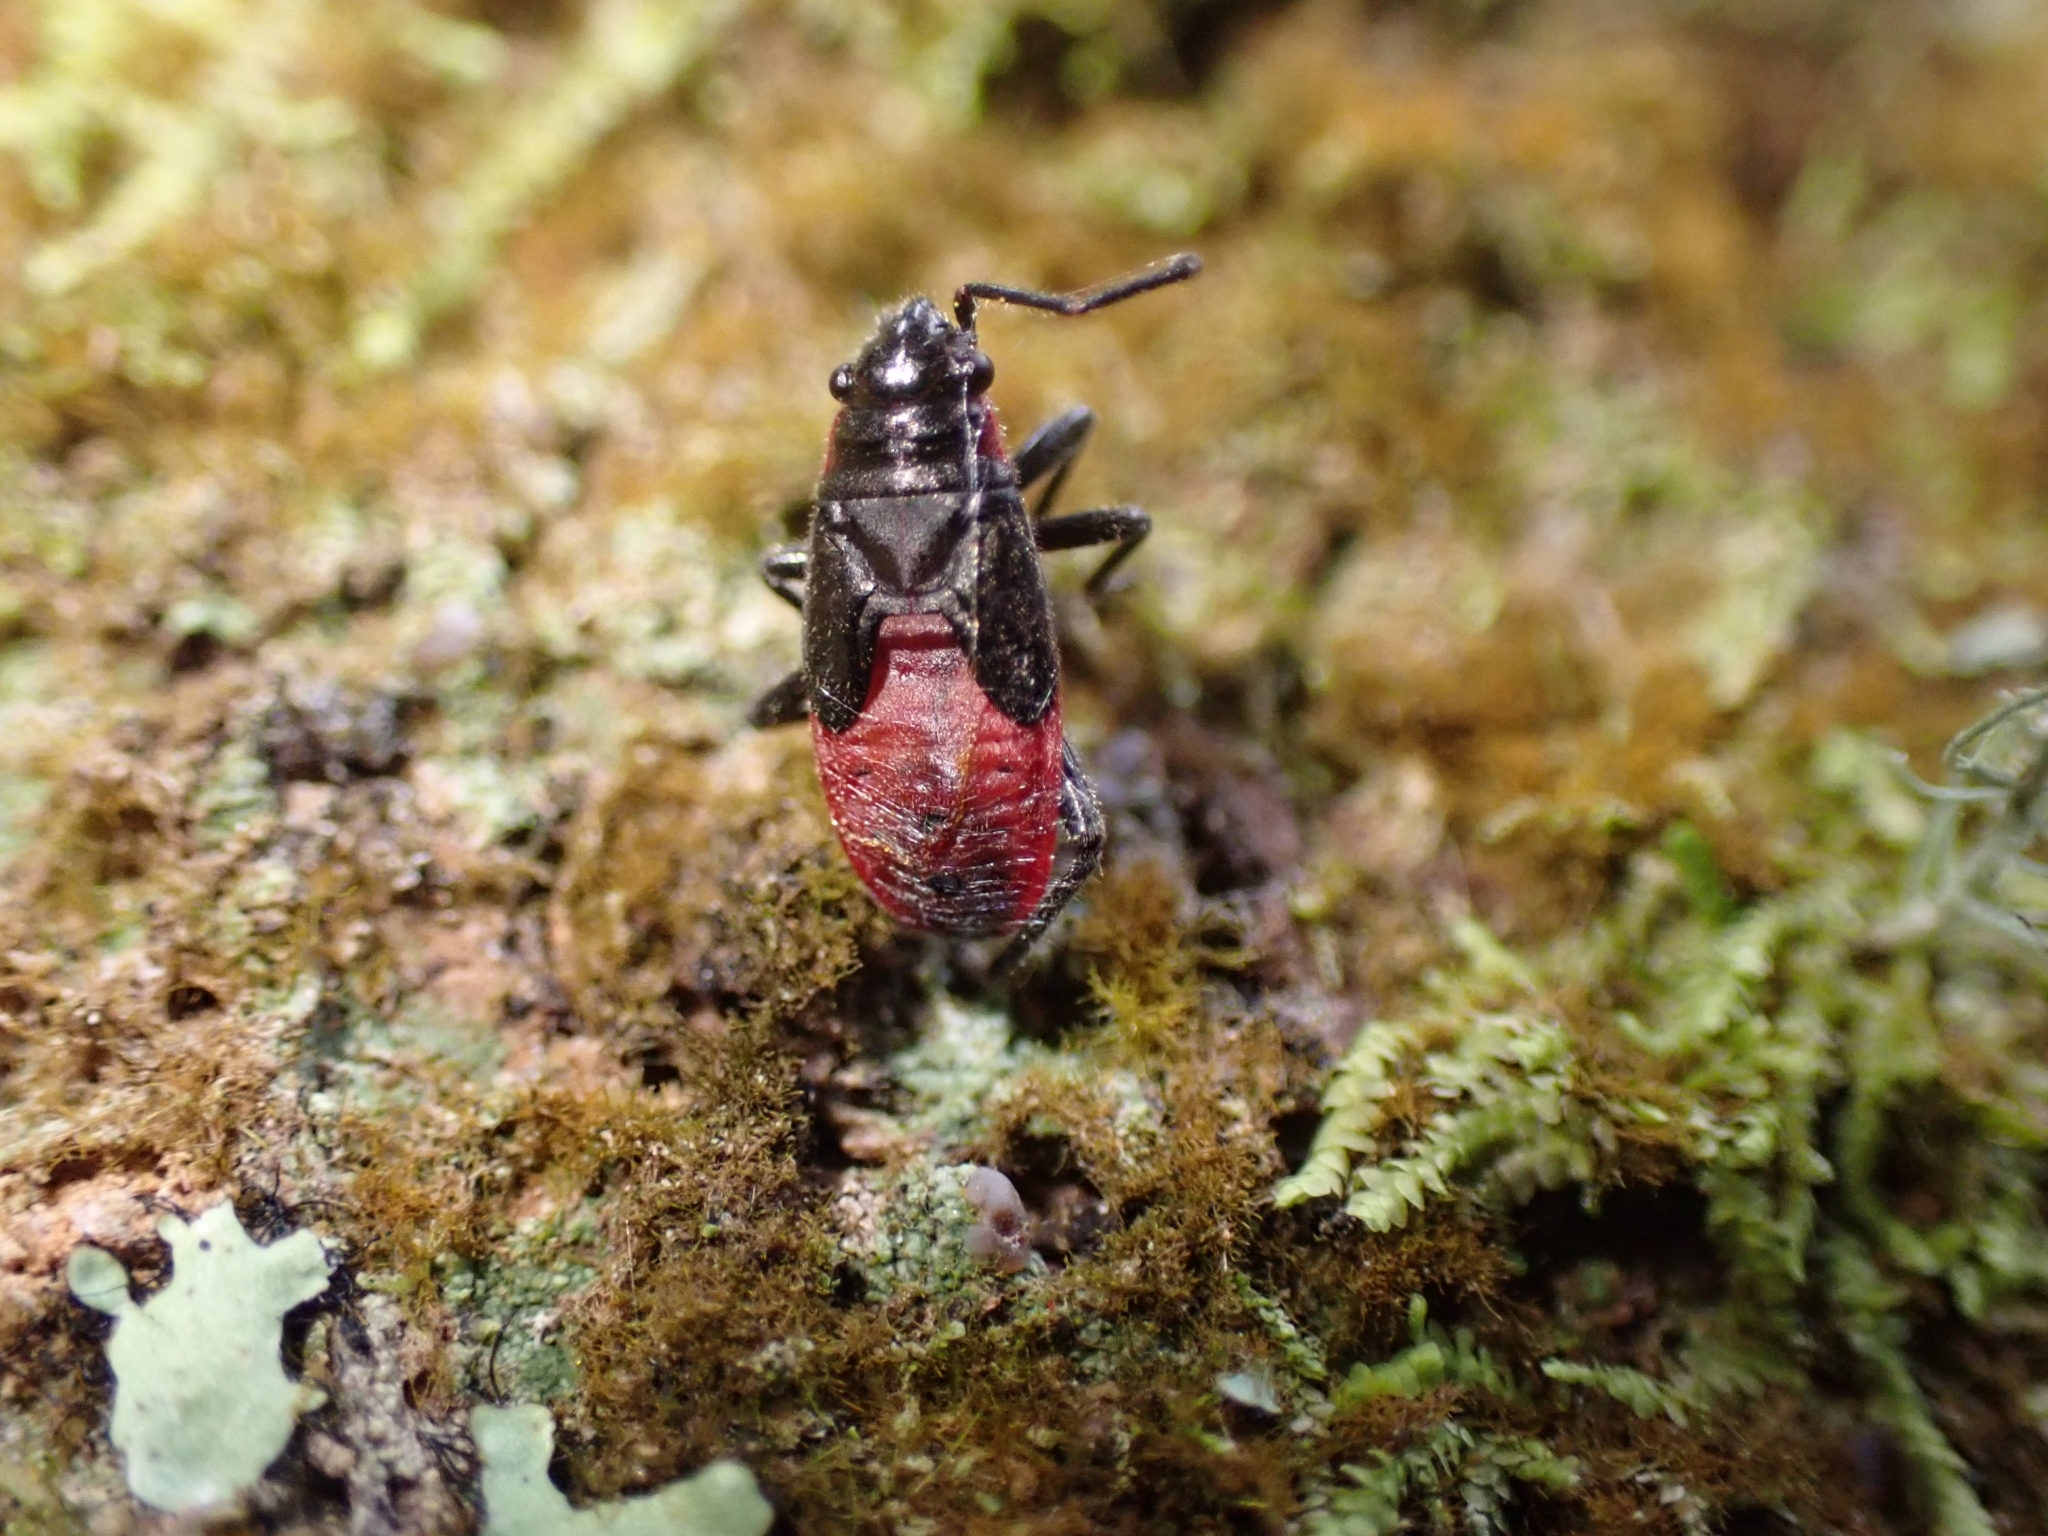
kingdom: Animalia
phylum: Arthropoda
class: Insecta
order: Hemiptera
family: Lygaeidae
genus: Arocatus
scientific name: Arocatus rusticus
